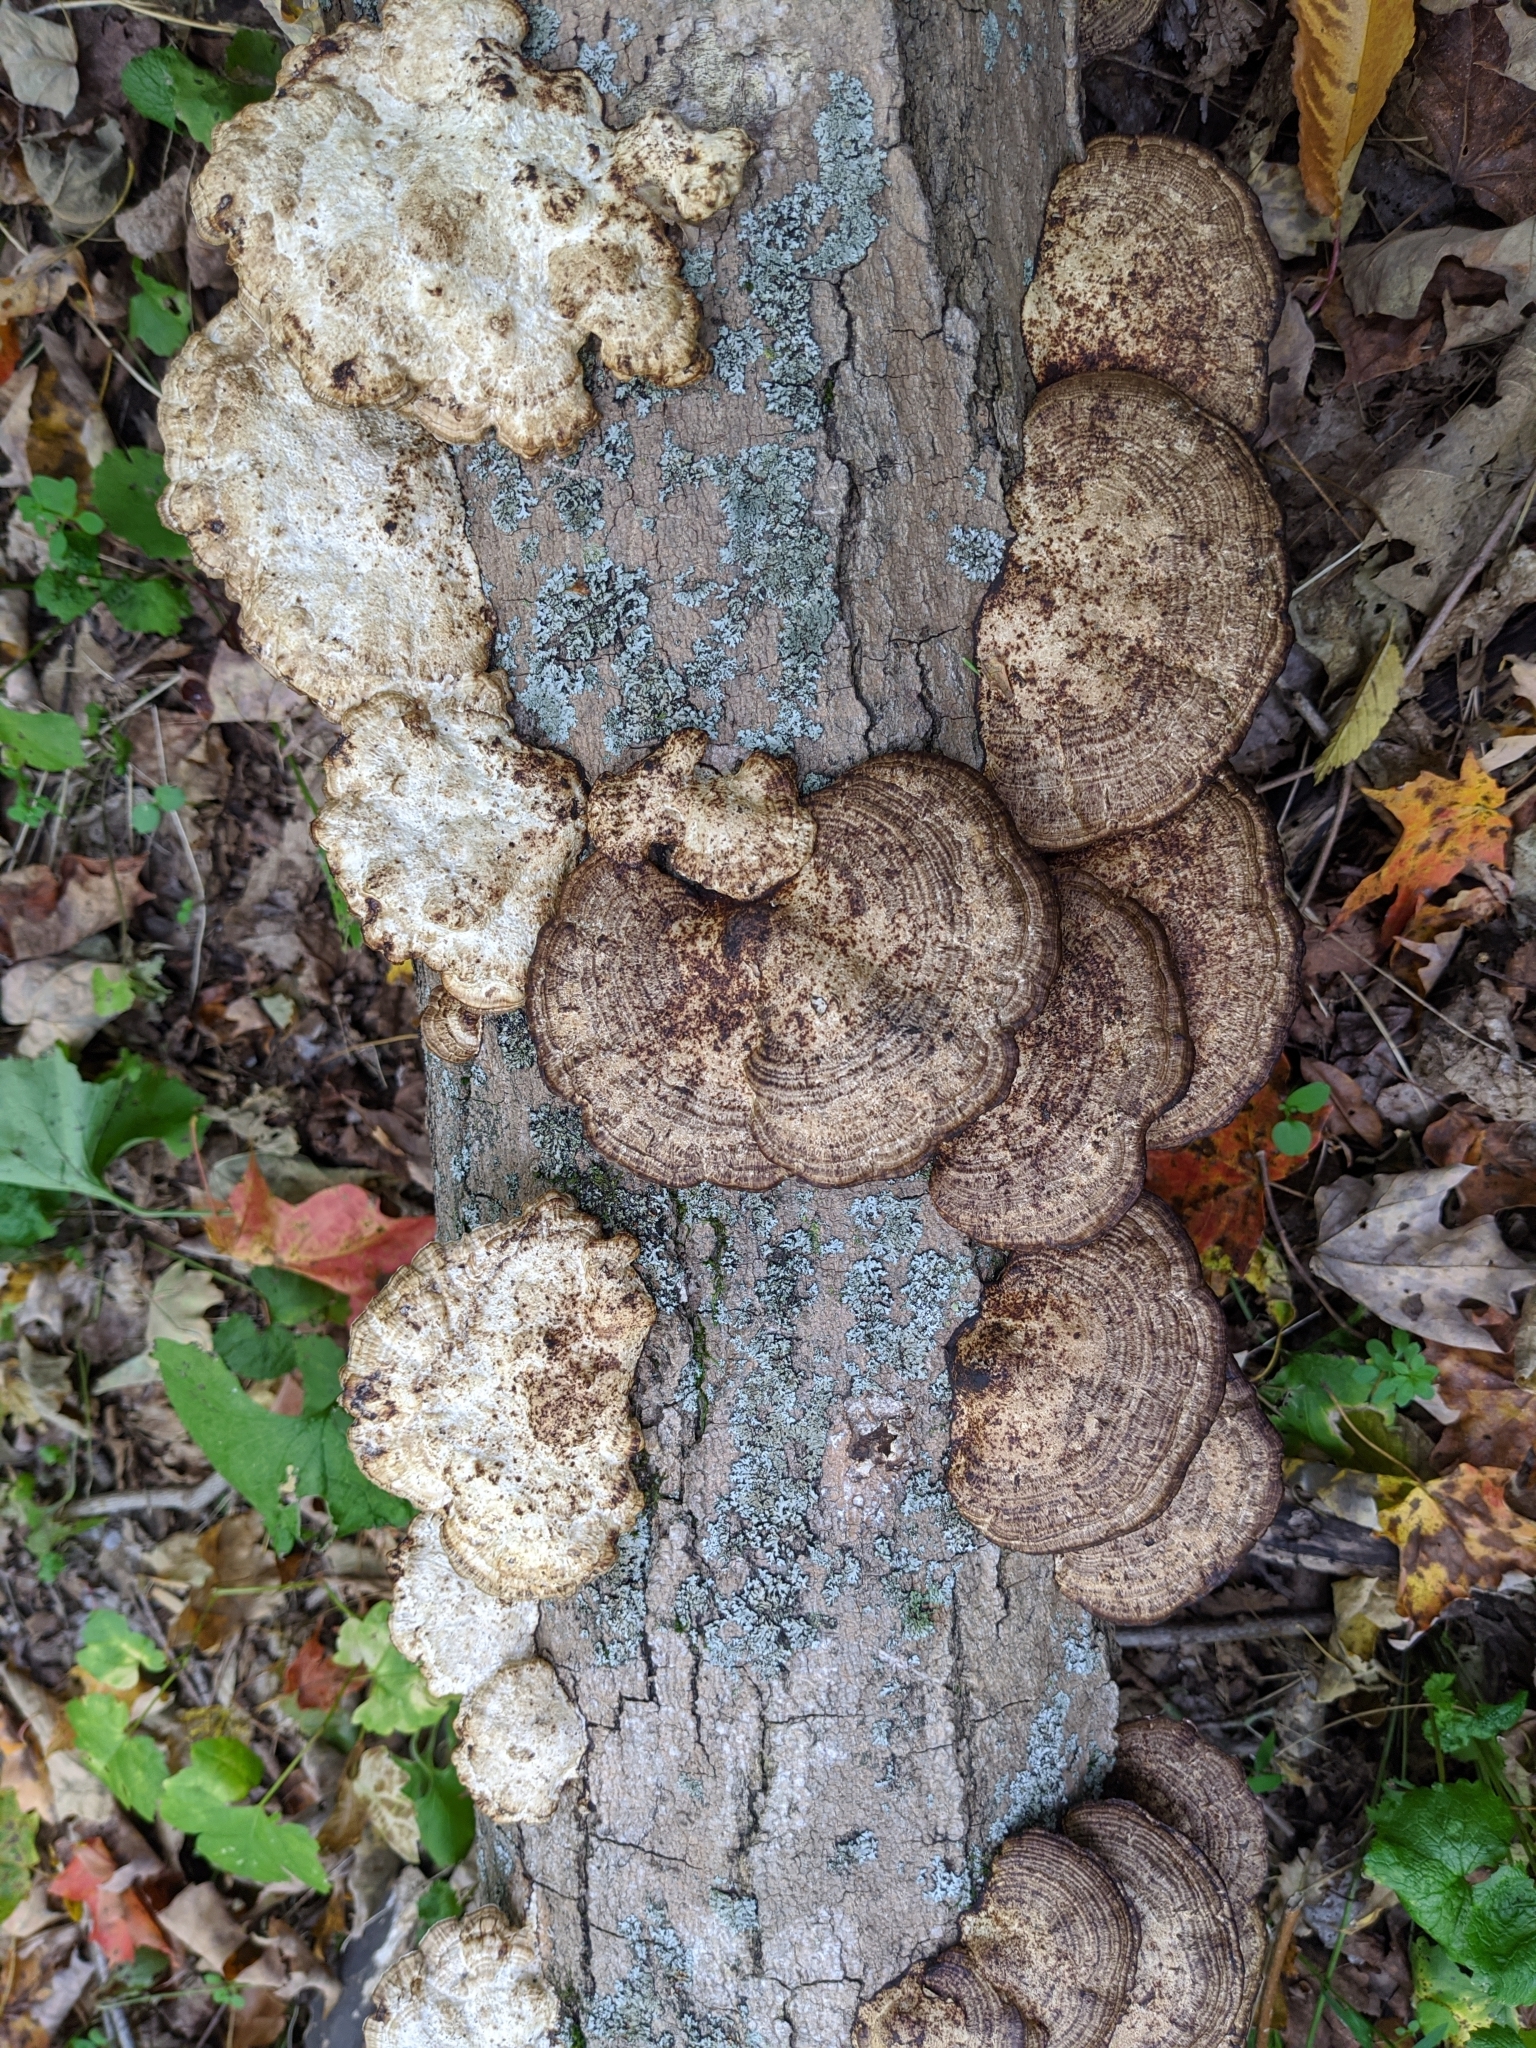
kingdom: Fungi
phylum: Basidiomycota
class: Agaricomycetes
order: Polyporales
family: Polyporaceae
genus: Daedaleopsis
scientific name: Daedaleopsis confragosa
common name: Blushing bracket
